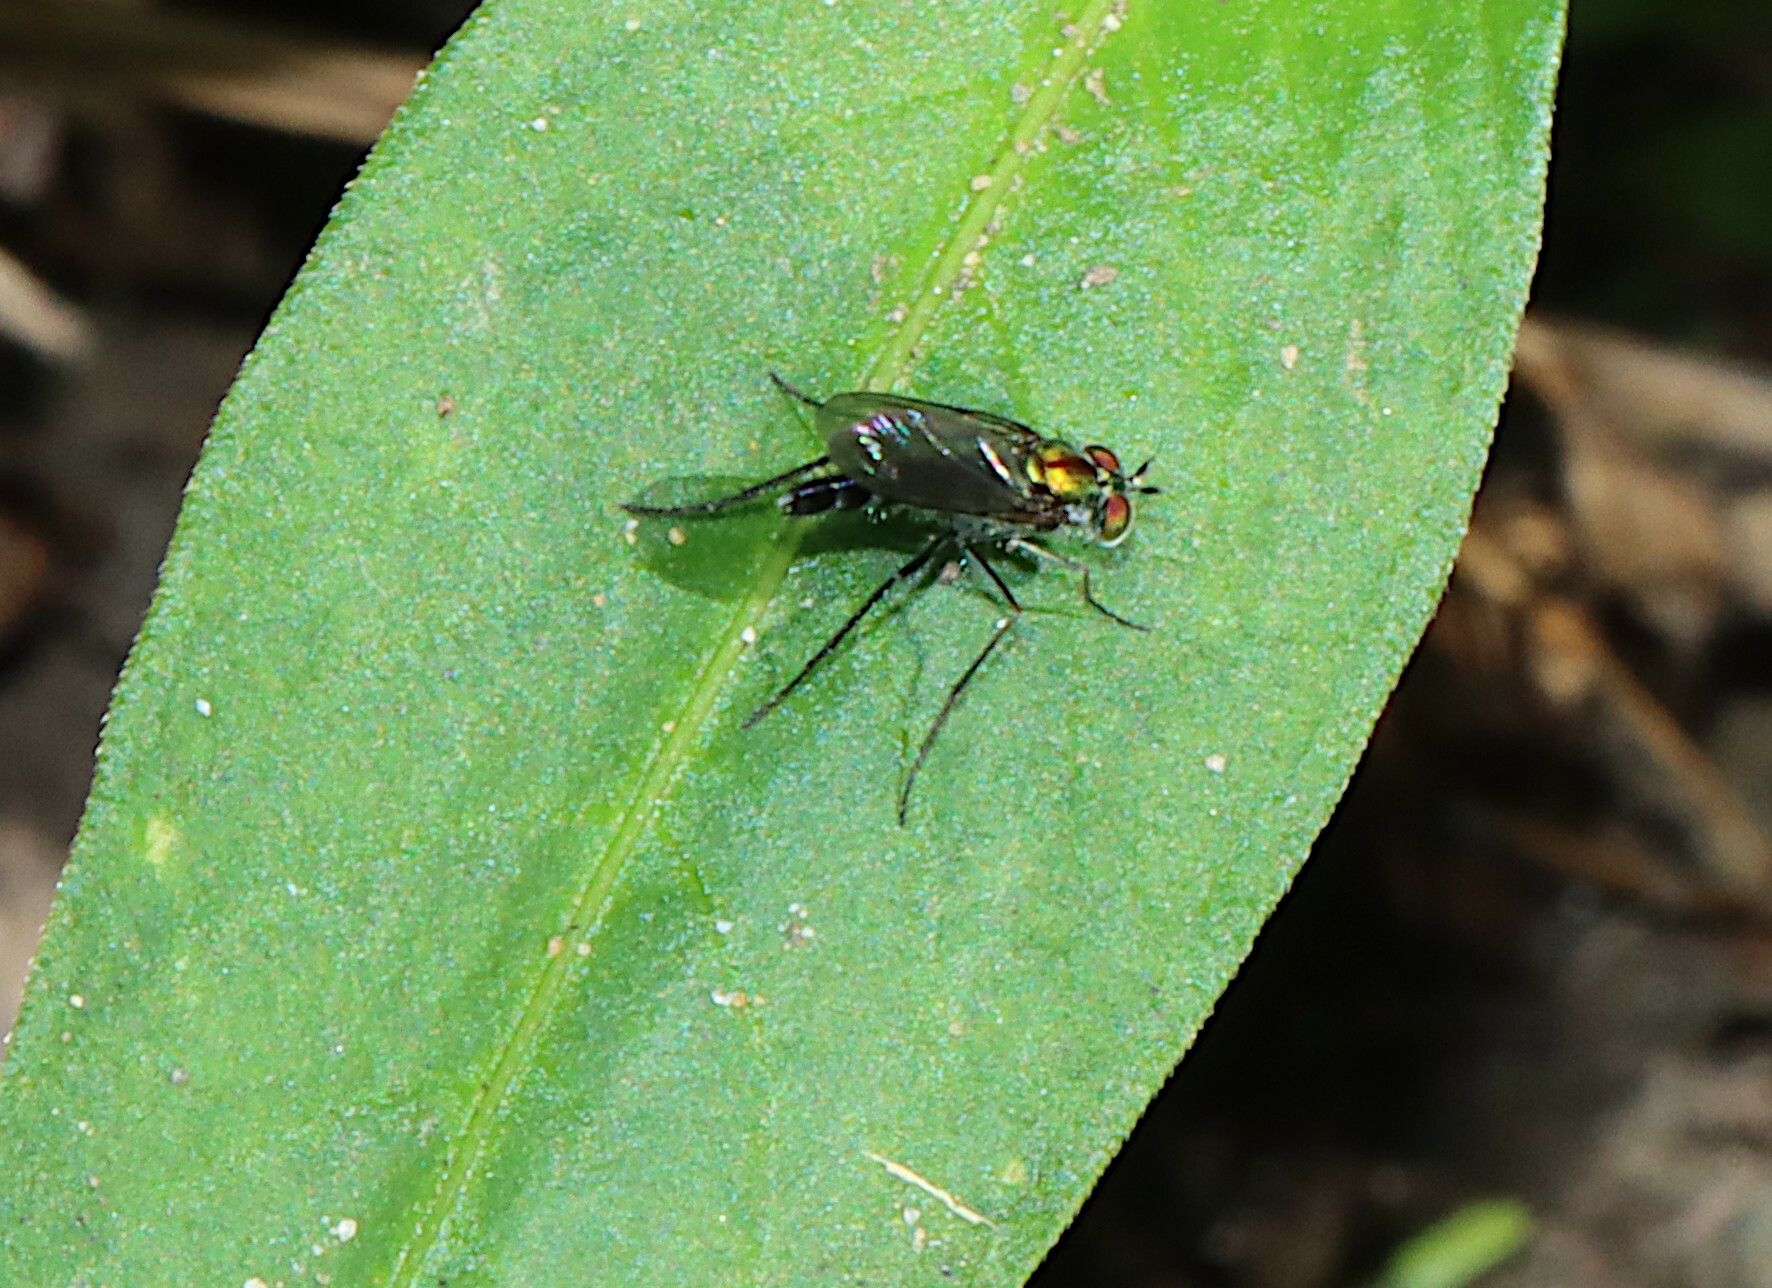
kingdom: Animalia
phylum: Arthropoda
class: Insecta
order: Diptera
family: Dolichopodidae
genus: Plagioneurus
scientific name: Plagioneurus univittatus
